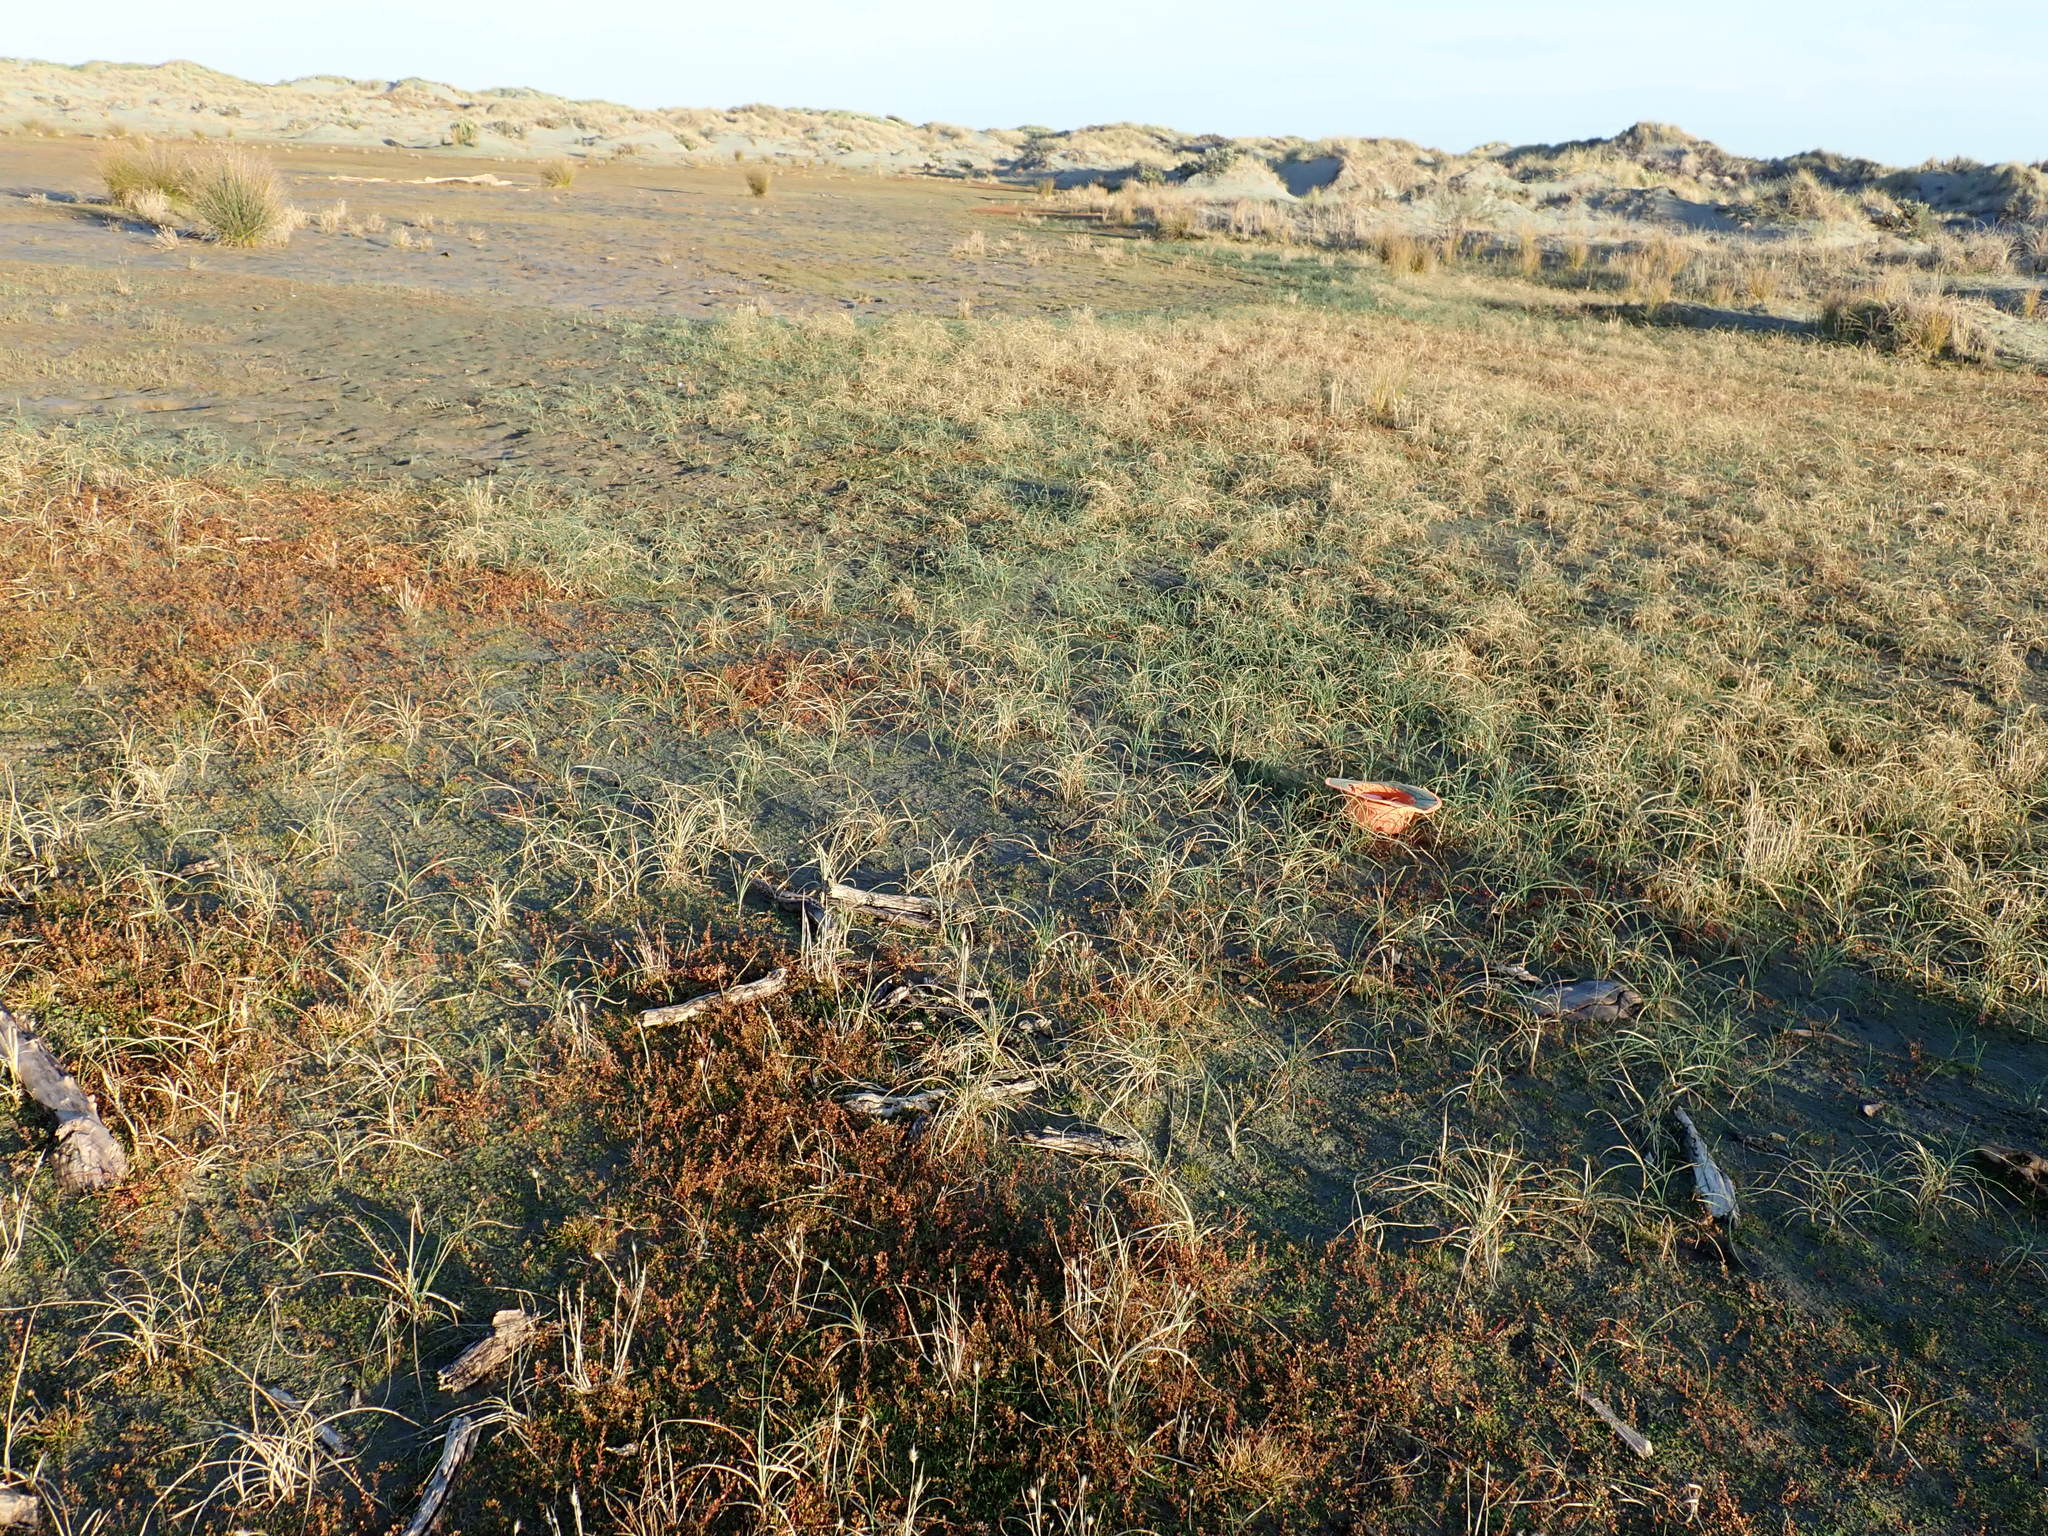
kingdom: Plantae
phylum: Tracheophyta
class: Magnoliopsida
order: Ericales
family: Primulaceae
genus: Samolus
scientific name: Samolus repens
